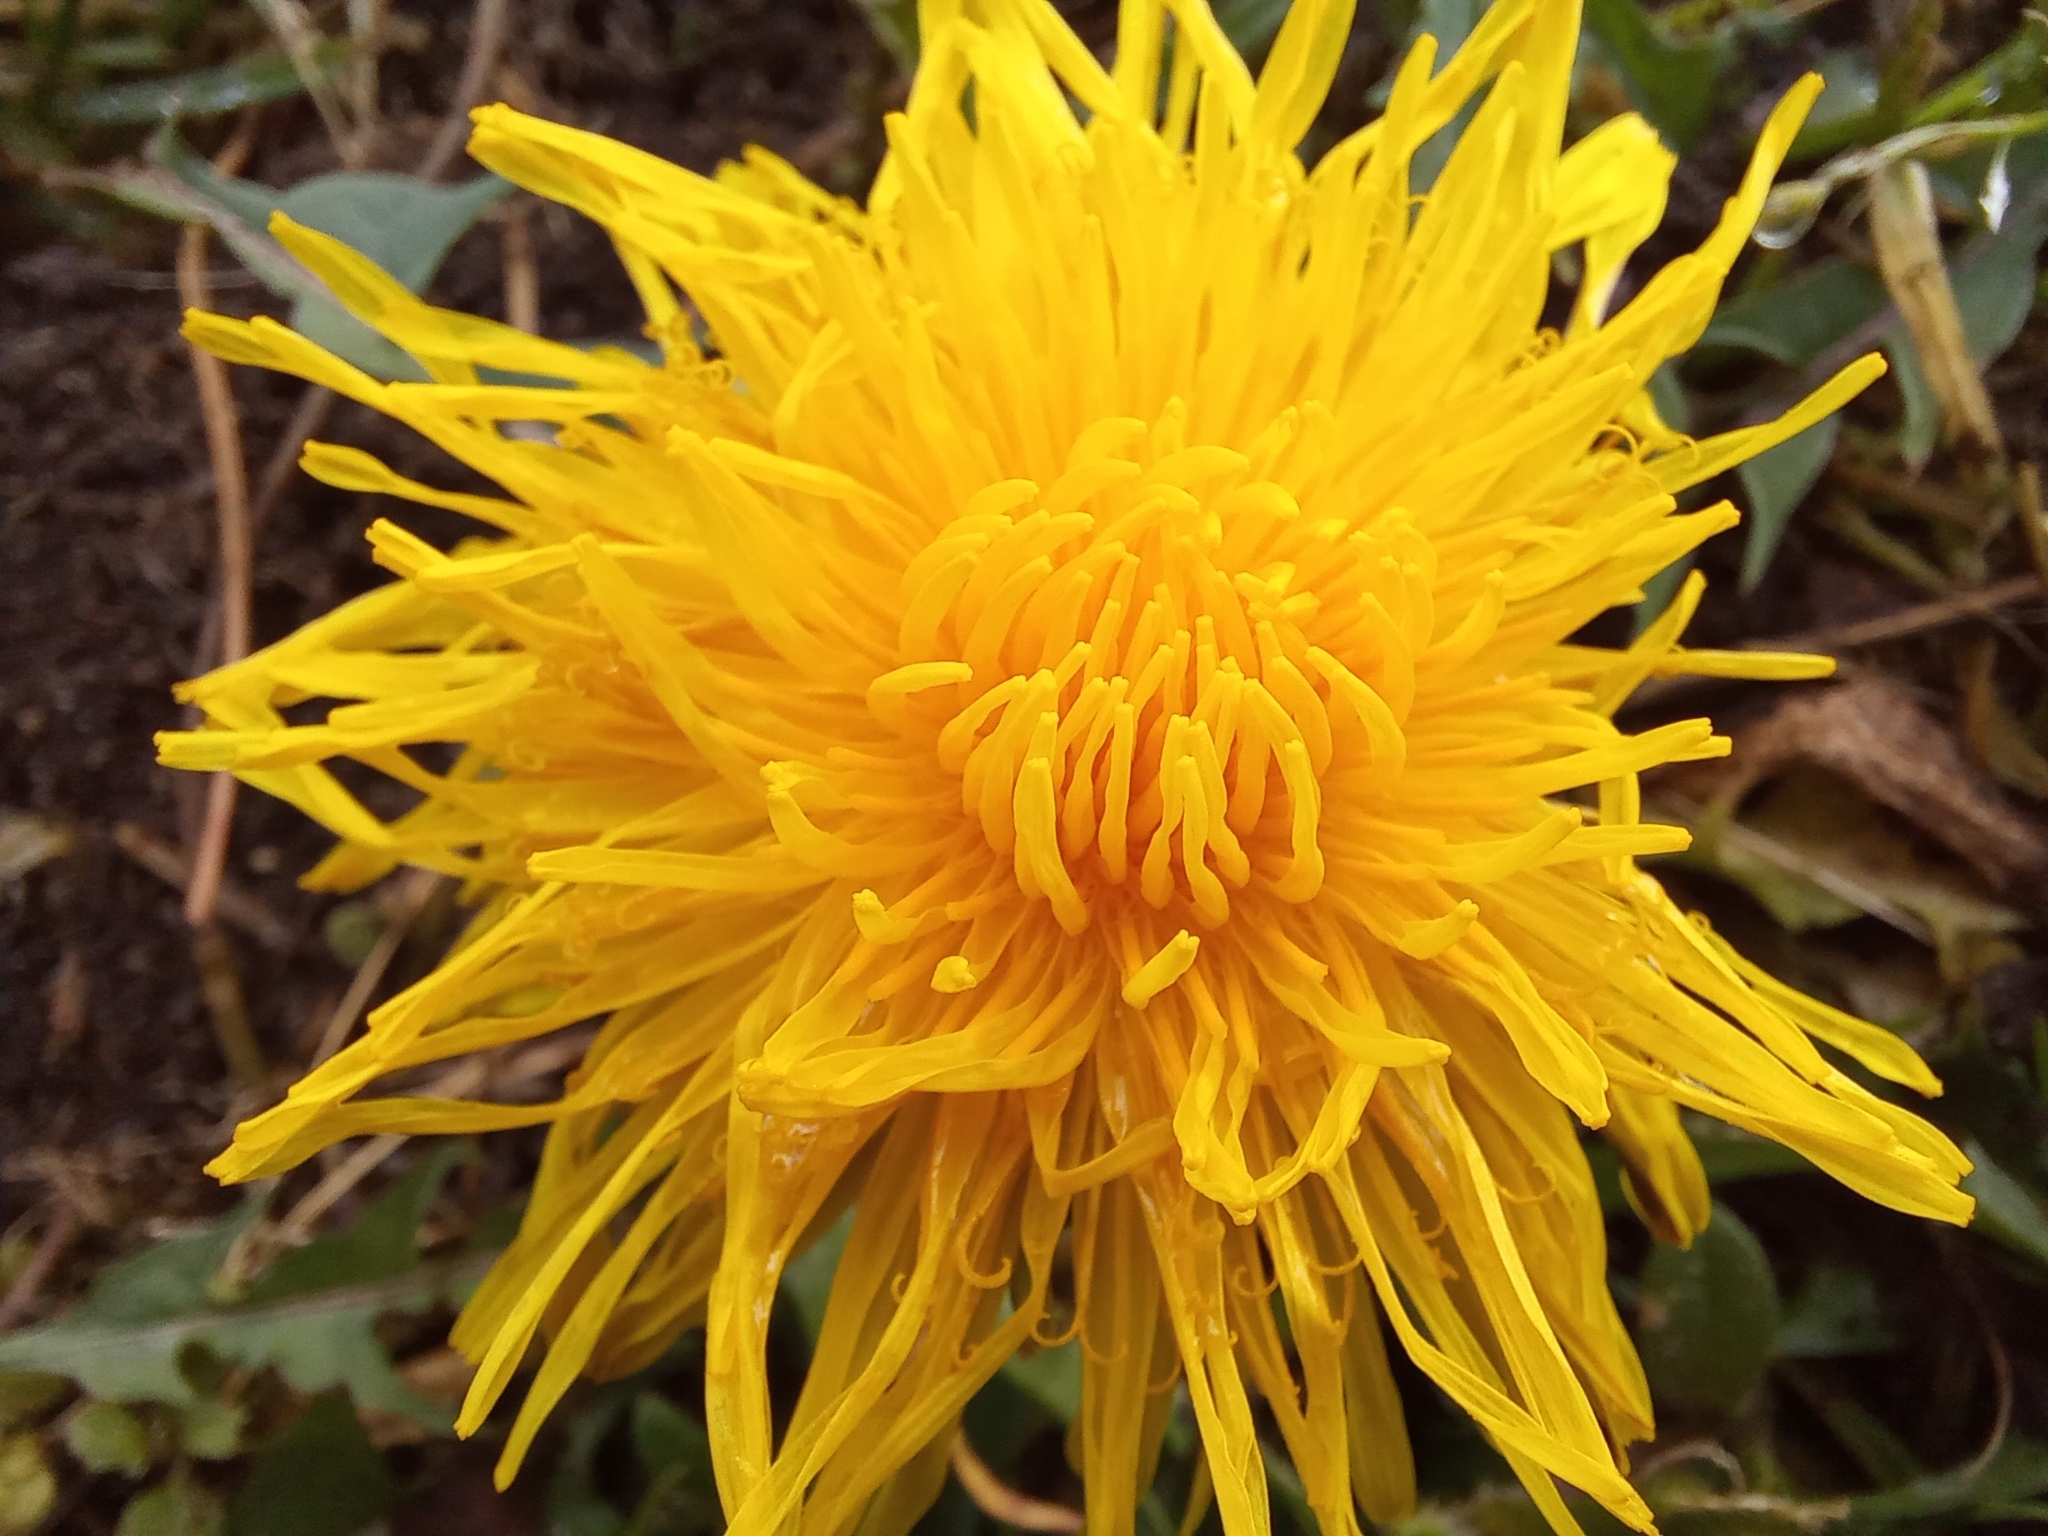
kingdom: Plantae
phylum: Tracheophyta
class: Magnoliopsida
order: Asterales
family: Asteraceae
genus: Taraxacum
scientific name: Taraxacum officinale
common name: Common dandelion
